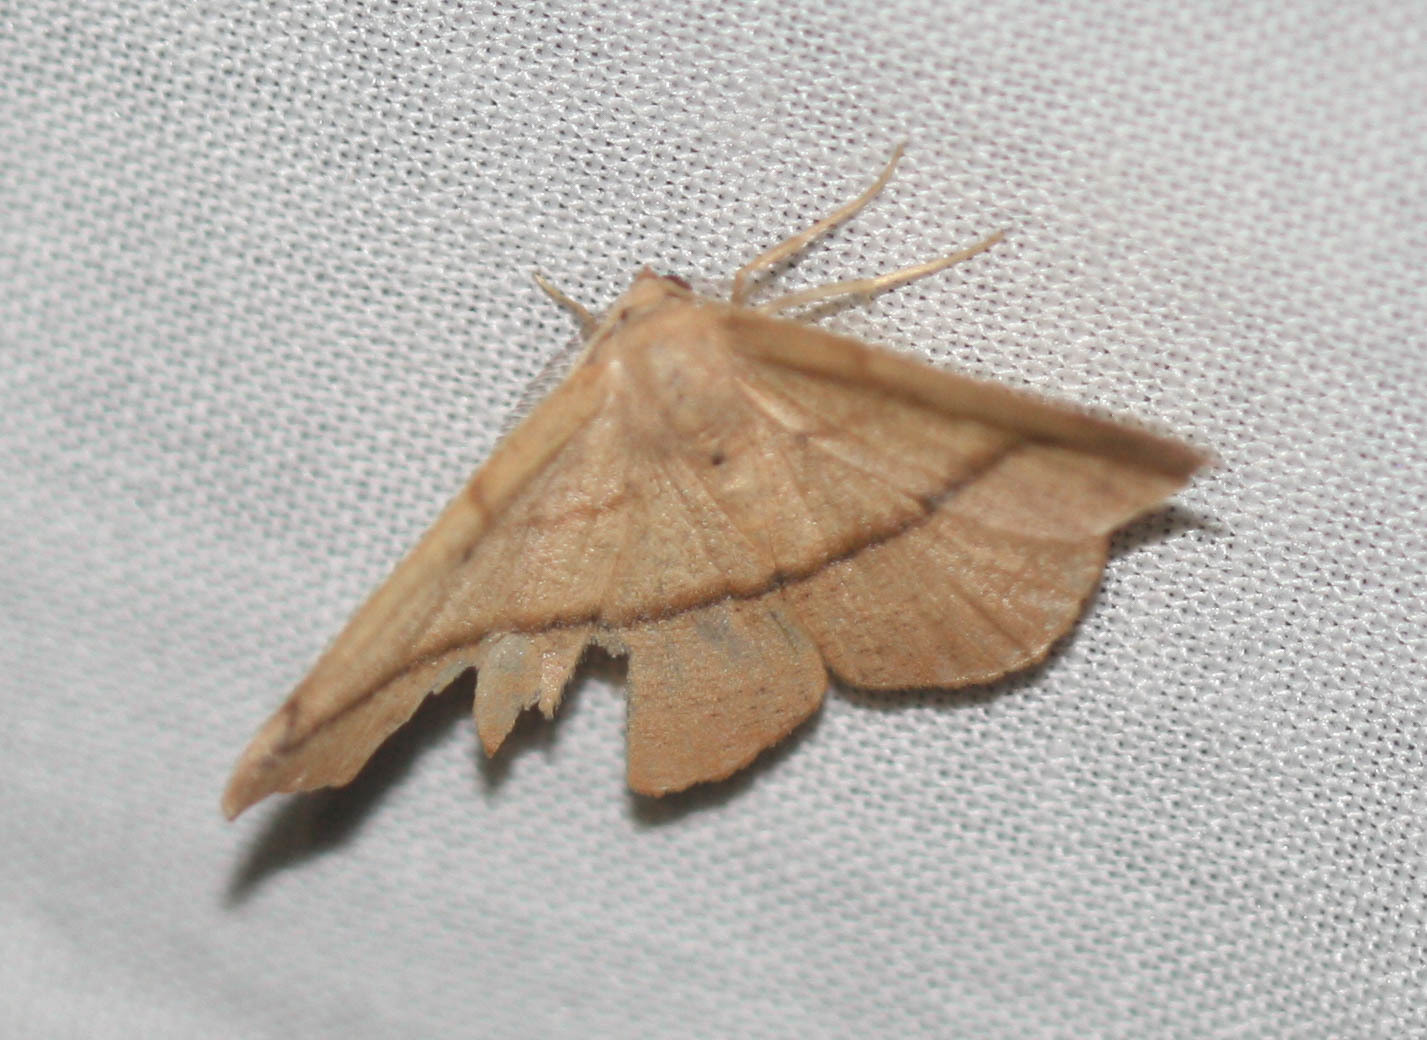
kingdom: Animalia
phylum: Arthropoda
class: Insecta
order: Lepidoptera
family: Geometridae
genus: Patalene
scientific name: Patalene olyzonaria
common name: Juniper geometer moth
